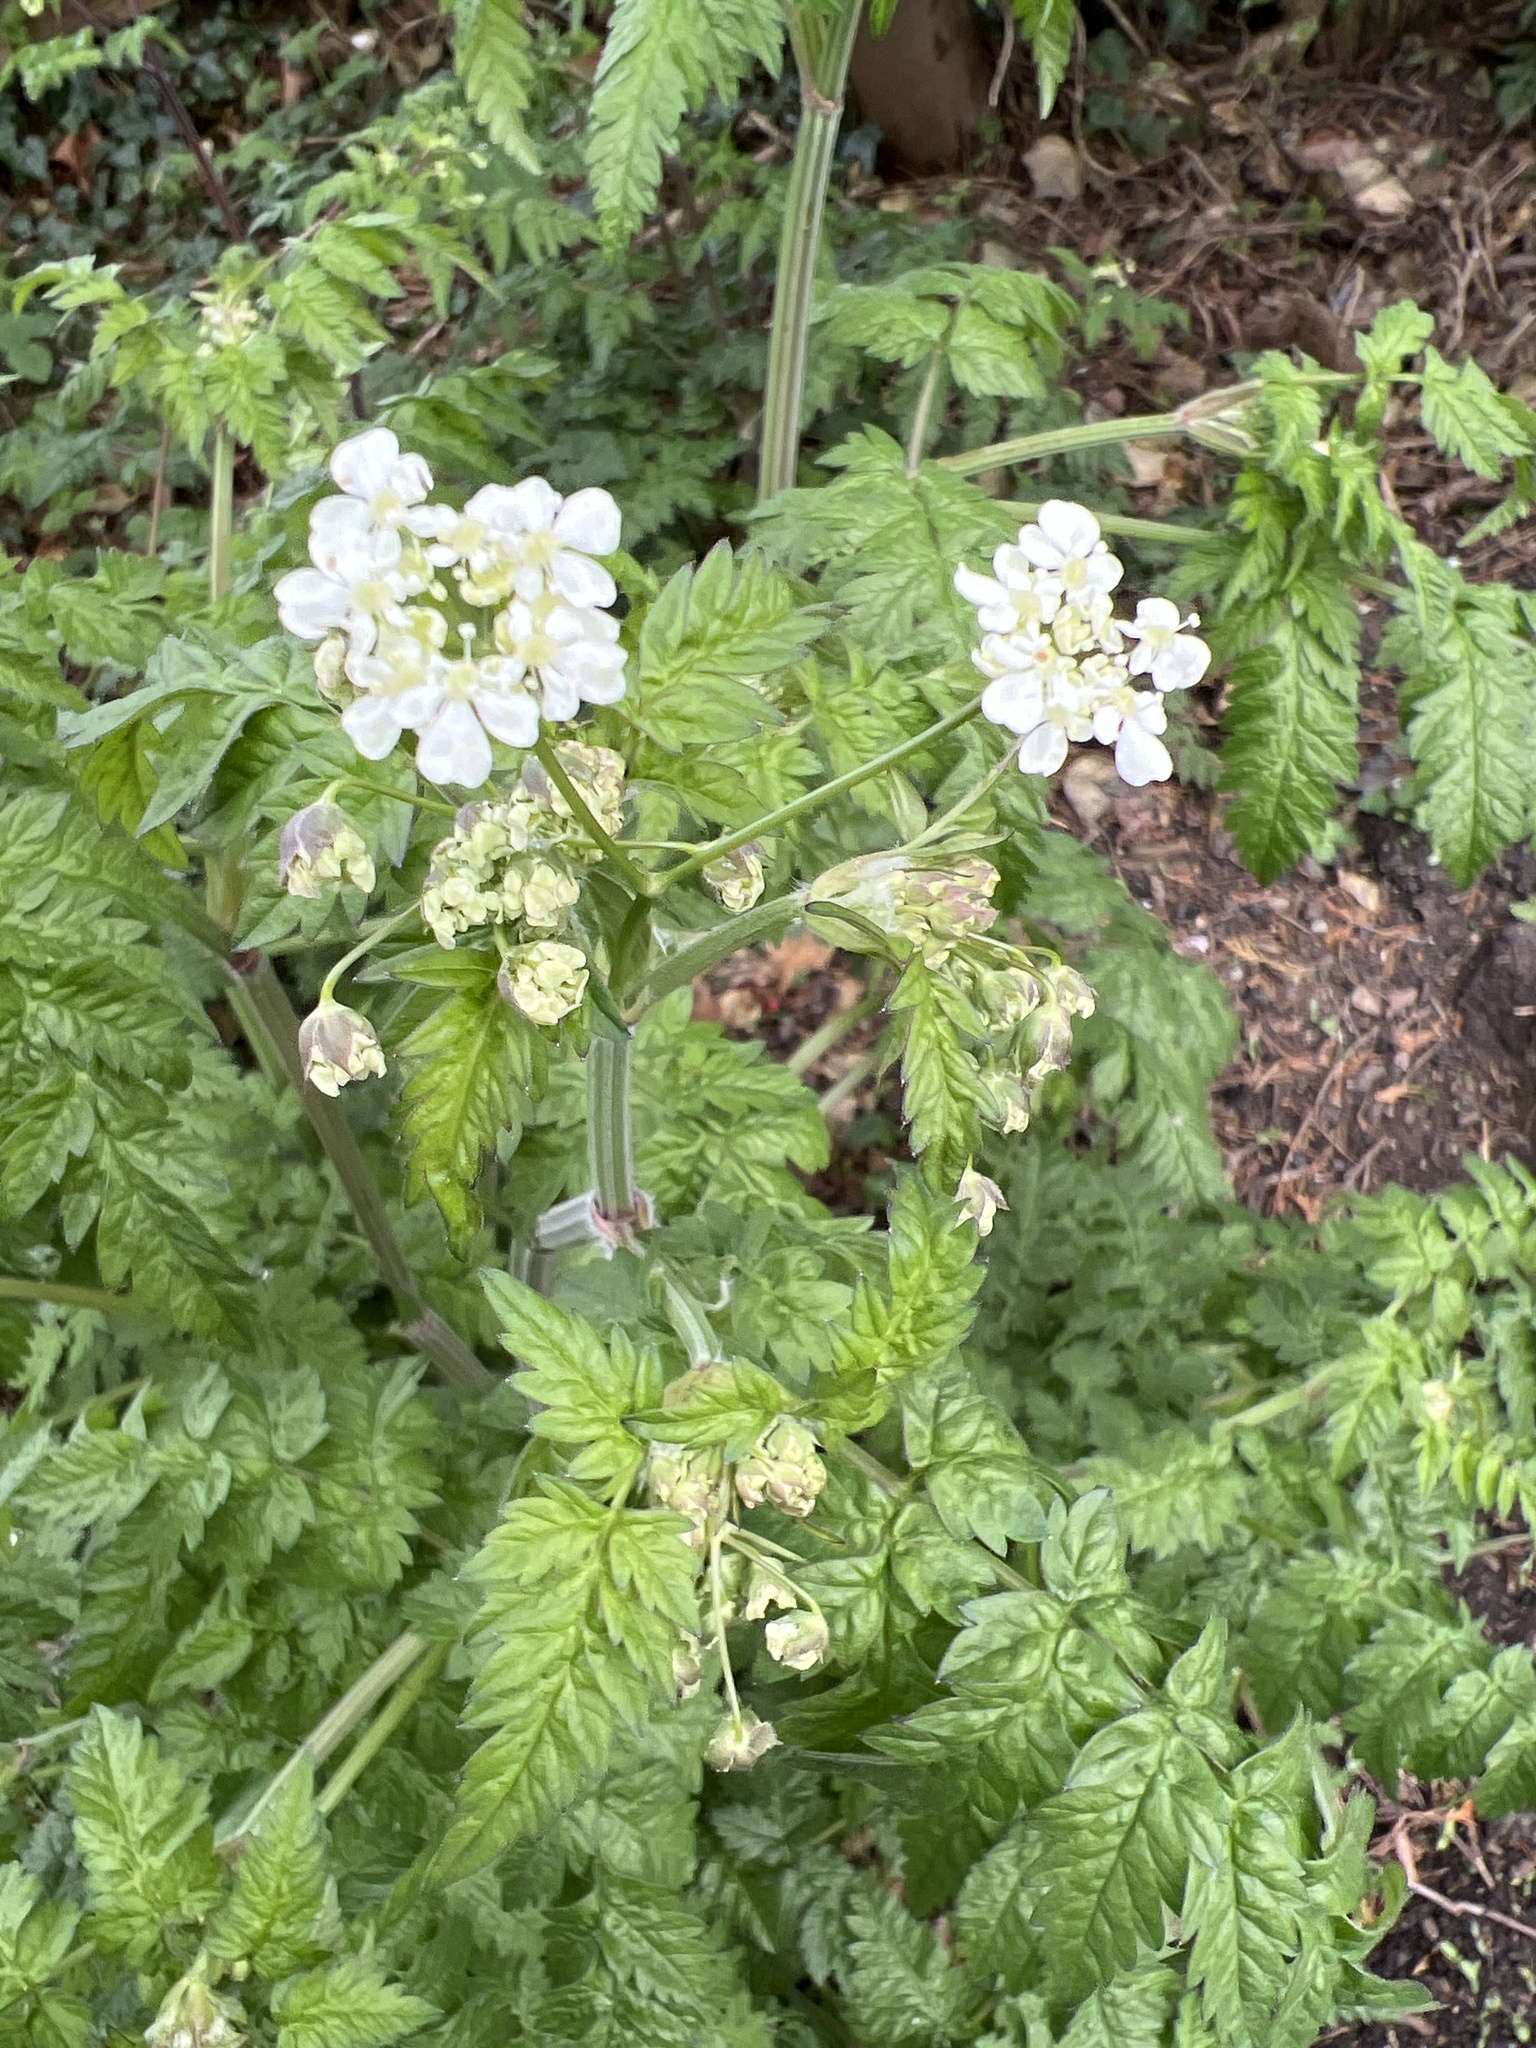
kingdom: Plantae
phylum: Tracheophyta
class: Magnoliopsida
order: Apiales
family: Apiaceae
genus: Anthriscus
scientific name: Anthriscus sylvestris
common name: Cow parsley
